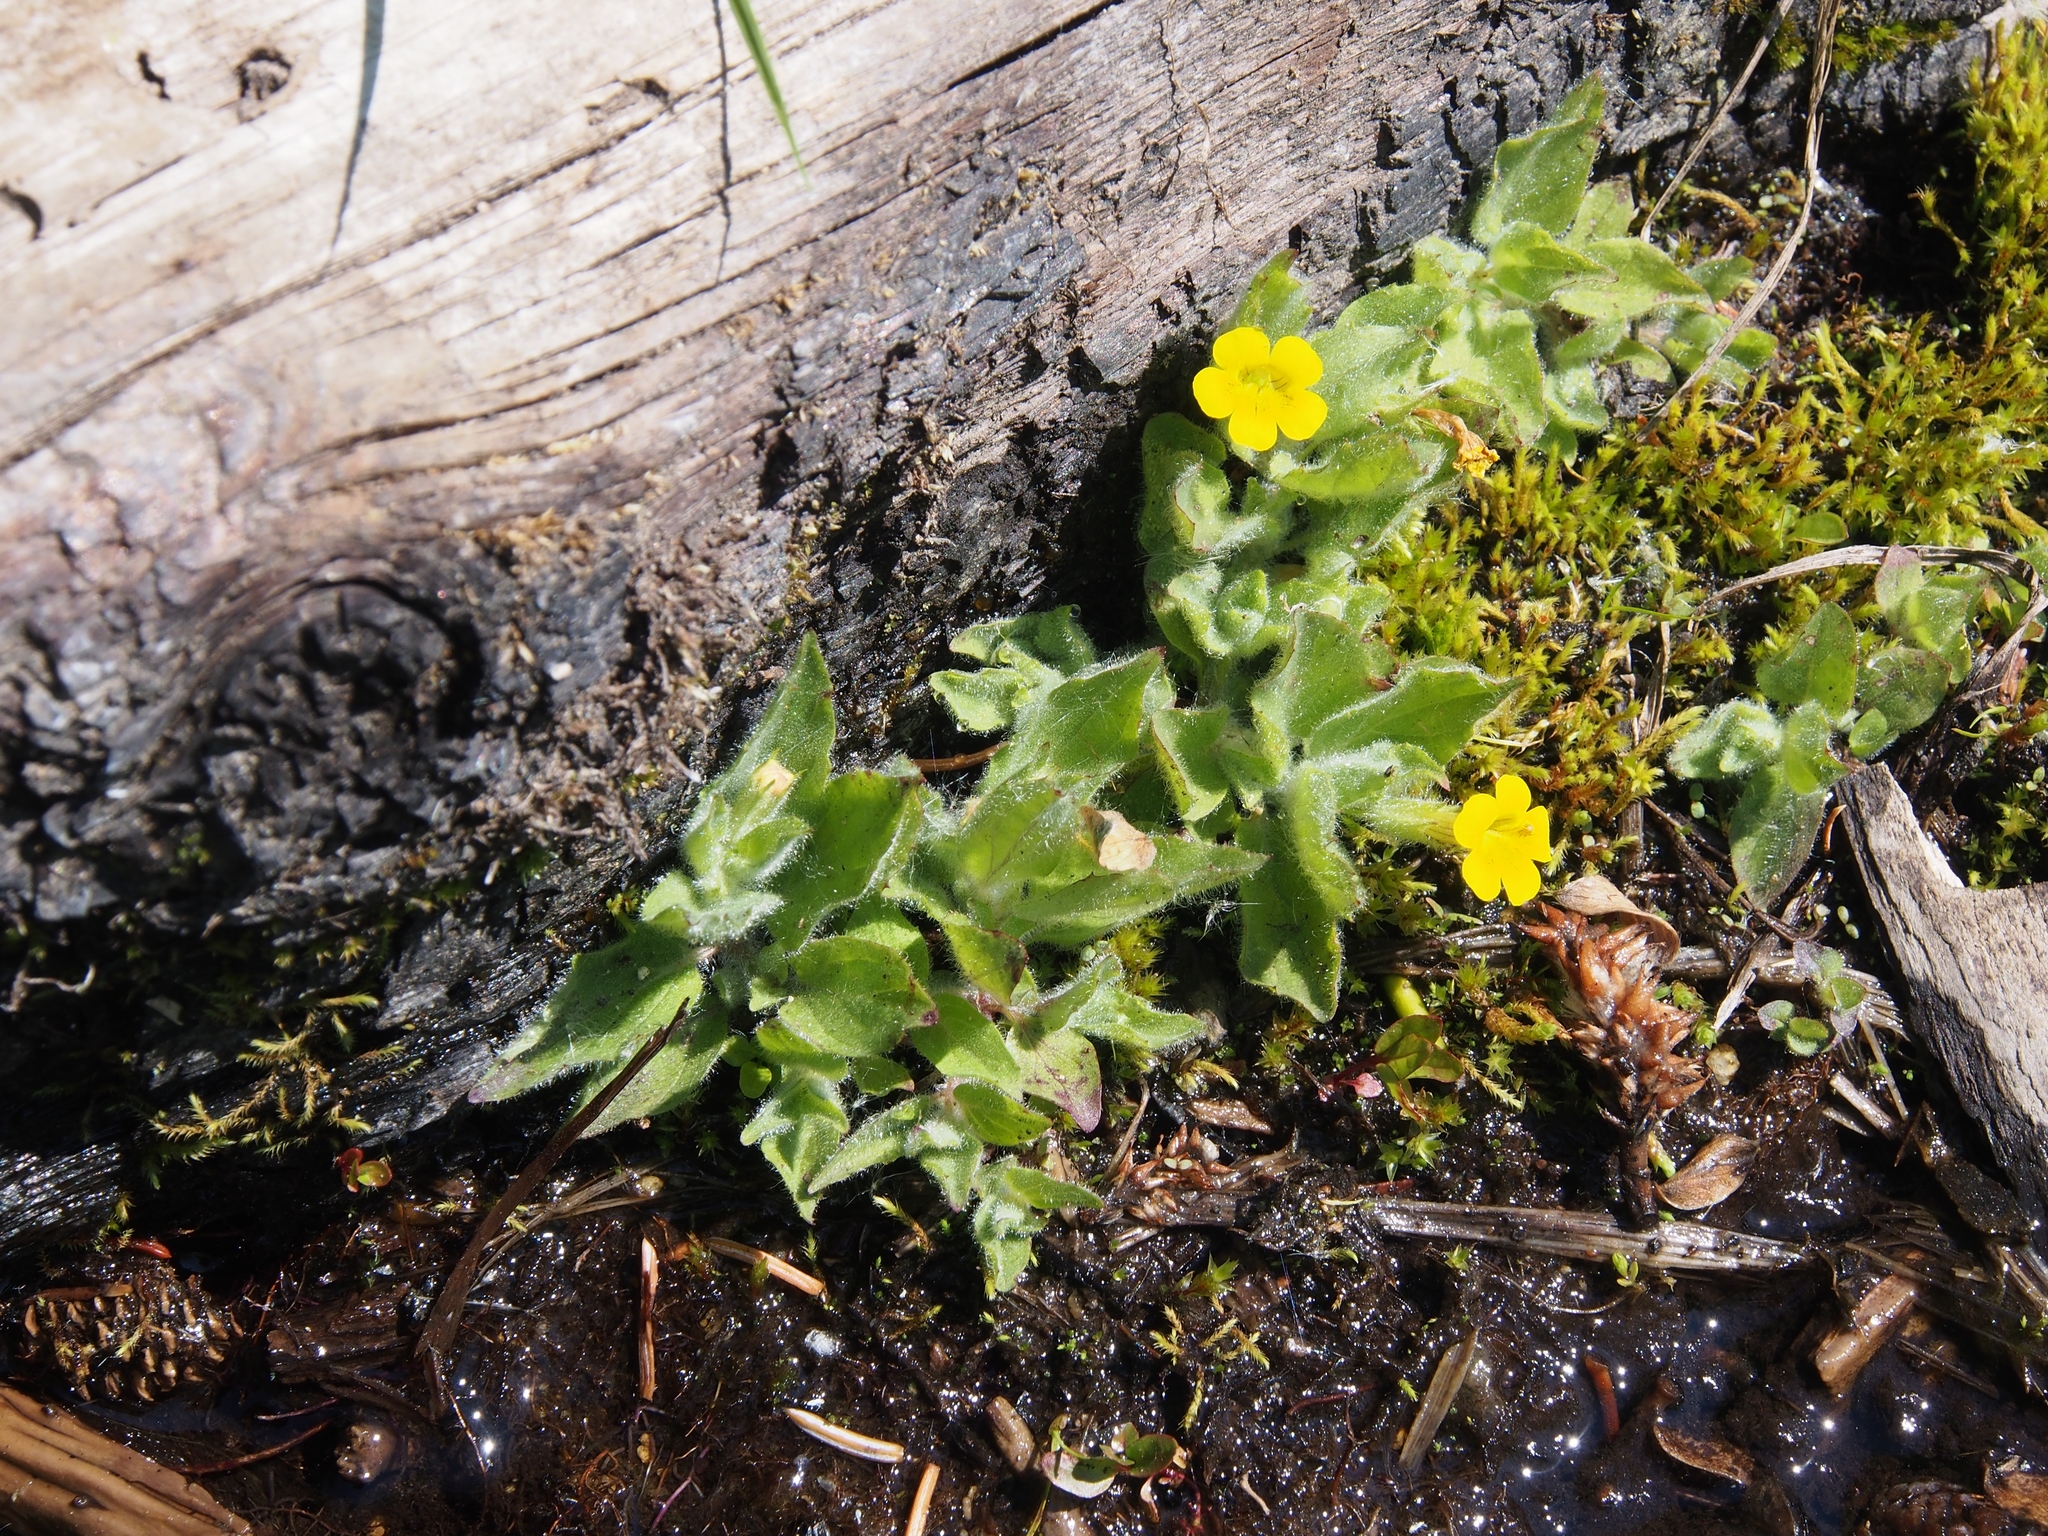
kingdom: Plantae
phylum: Tracheophyta
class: Magnoliopsida
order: Lamiales
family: Phrymaceae
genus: Erythranthe
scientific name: Erythranthe moschata
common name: Muskflower
